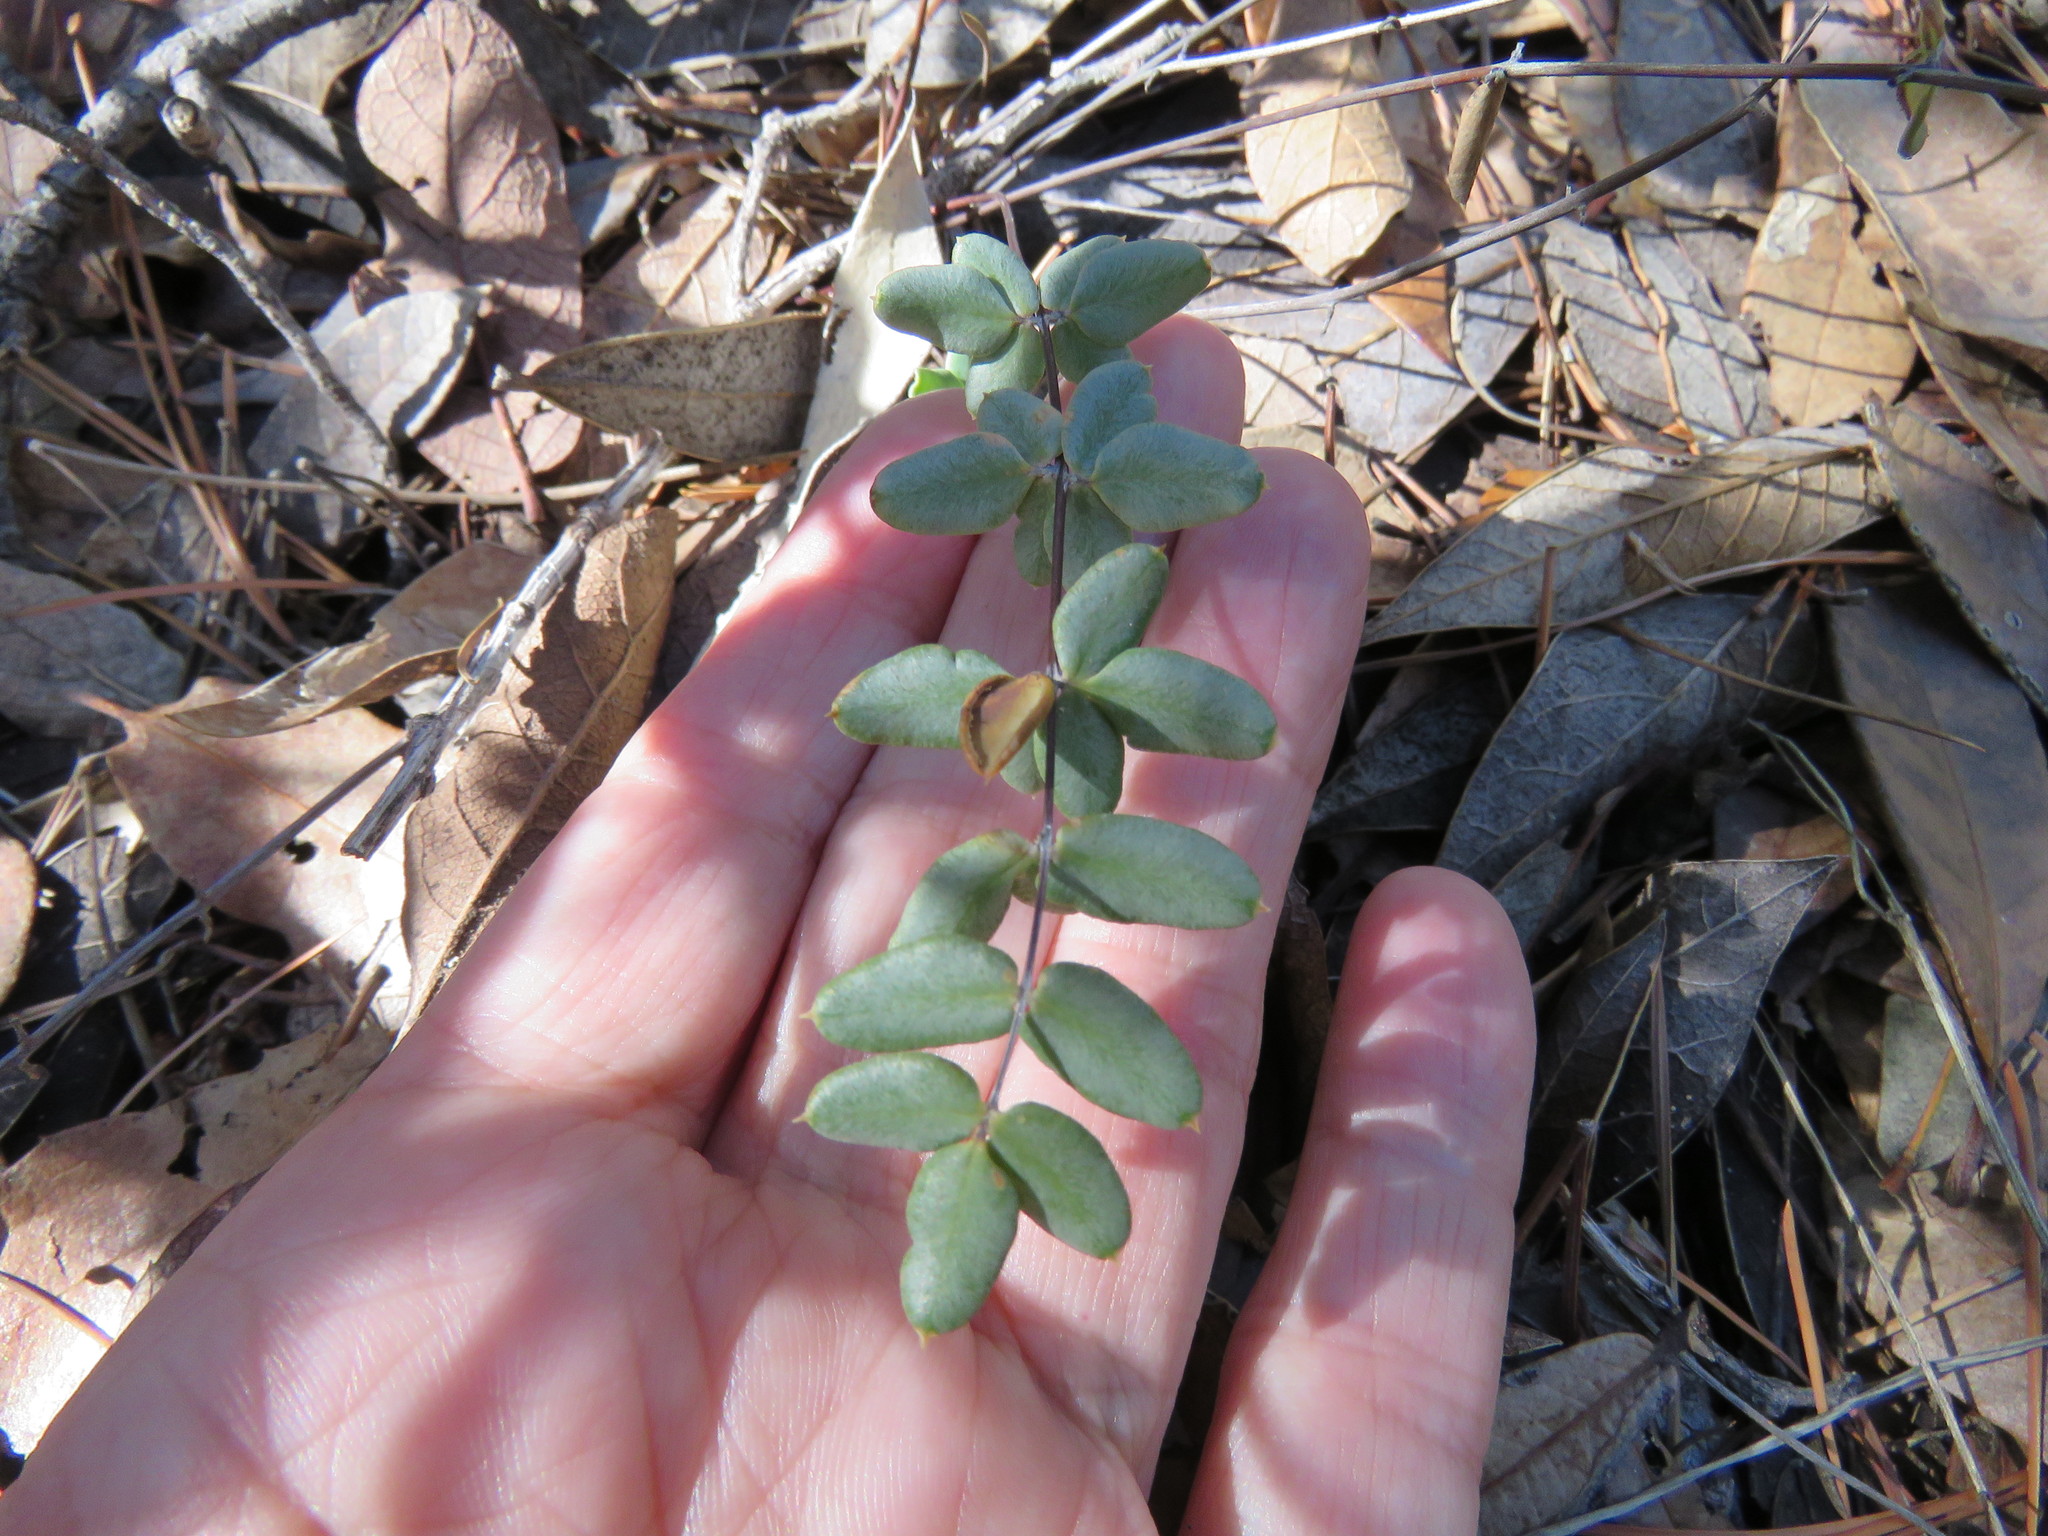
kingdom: Plantae
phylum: Tracheophyta
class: Polypodiopsida
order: Polypodiales
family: Pteridaceae
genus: Pellaea
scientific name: Pellaea wrightiana
